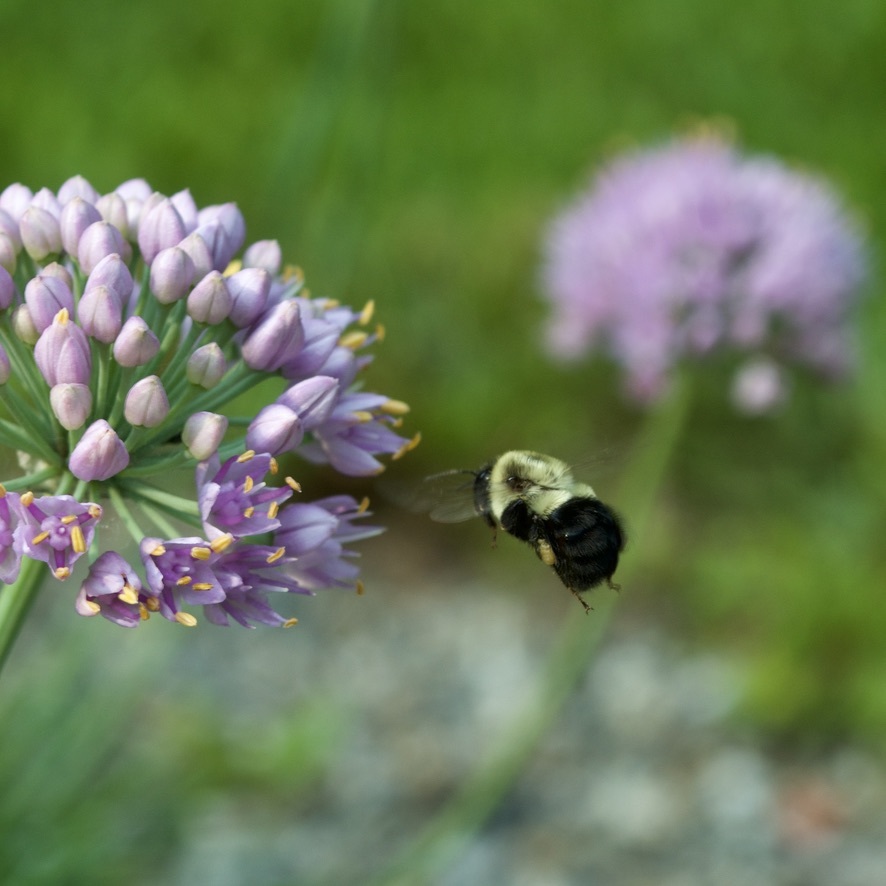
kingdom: Animalia
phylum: Arthropoda
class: Insecta
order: Hymenoptera
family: Apidae
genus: Bombus
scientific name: Bombus impatiens
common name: Common eastern bumble bee
